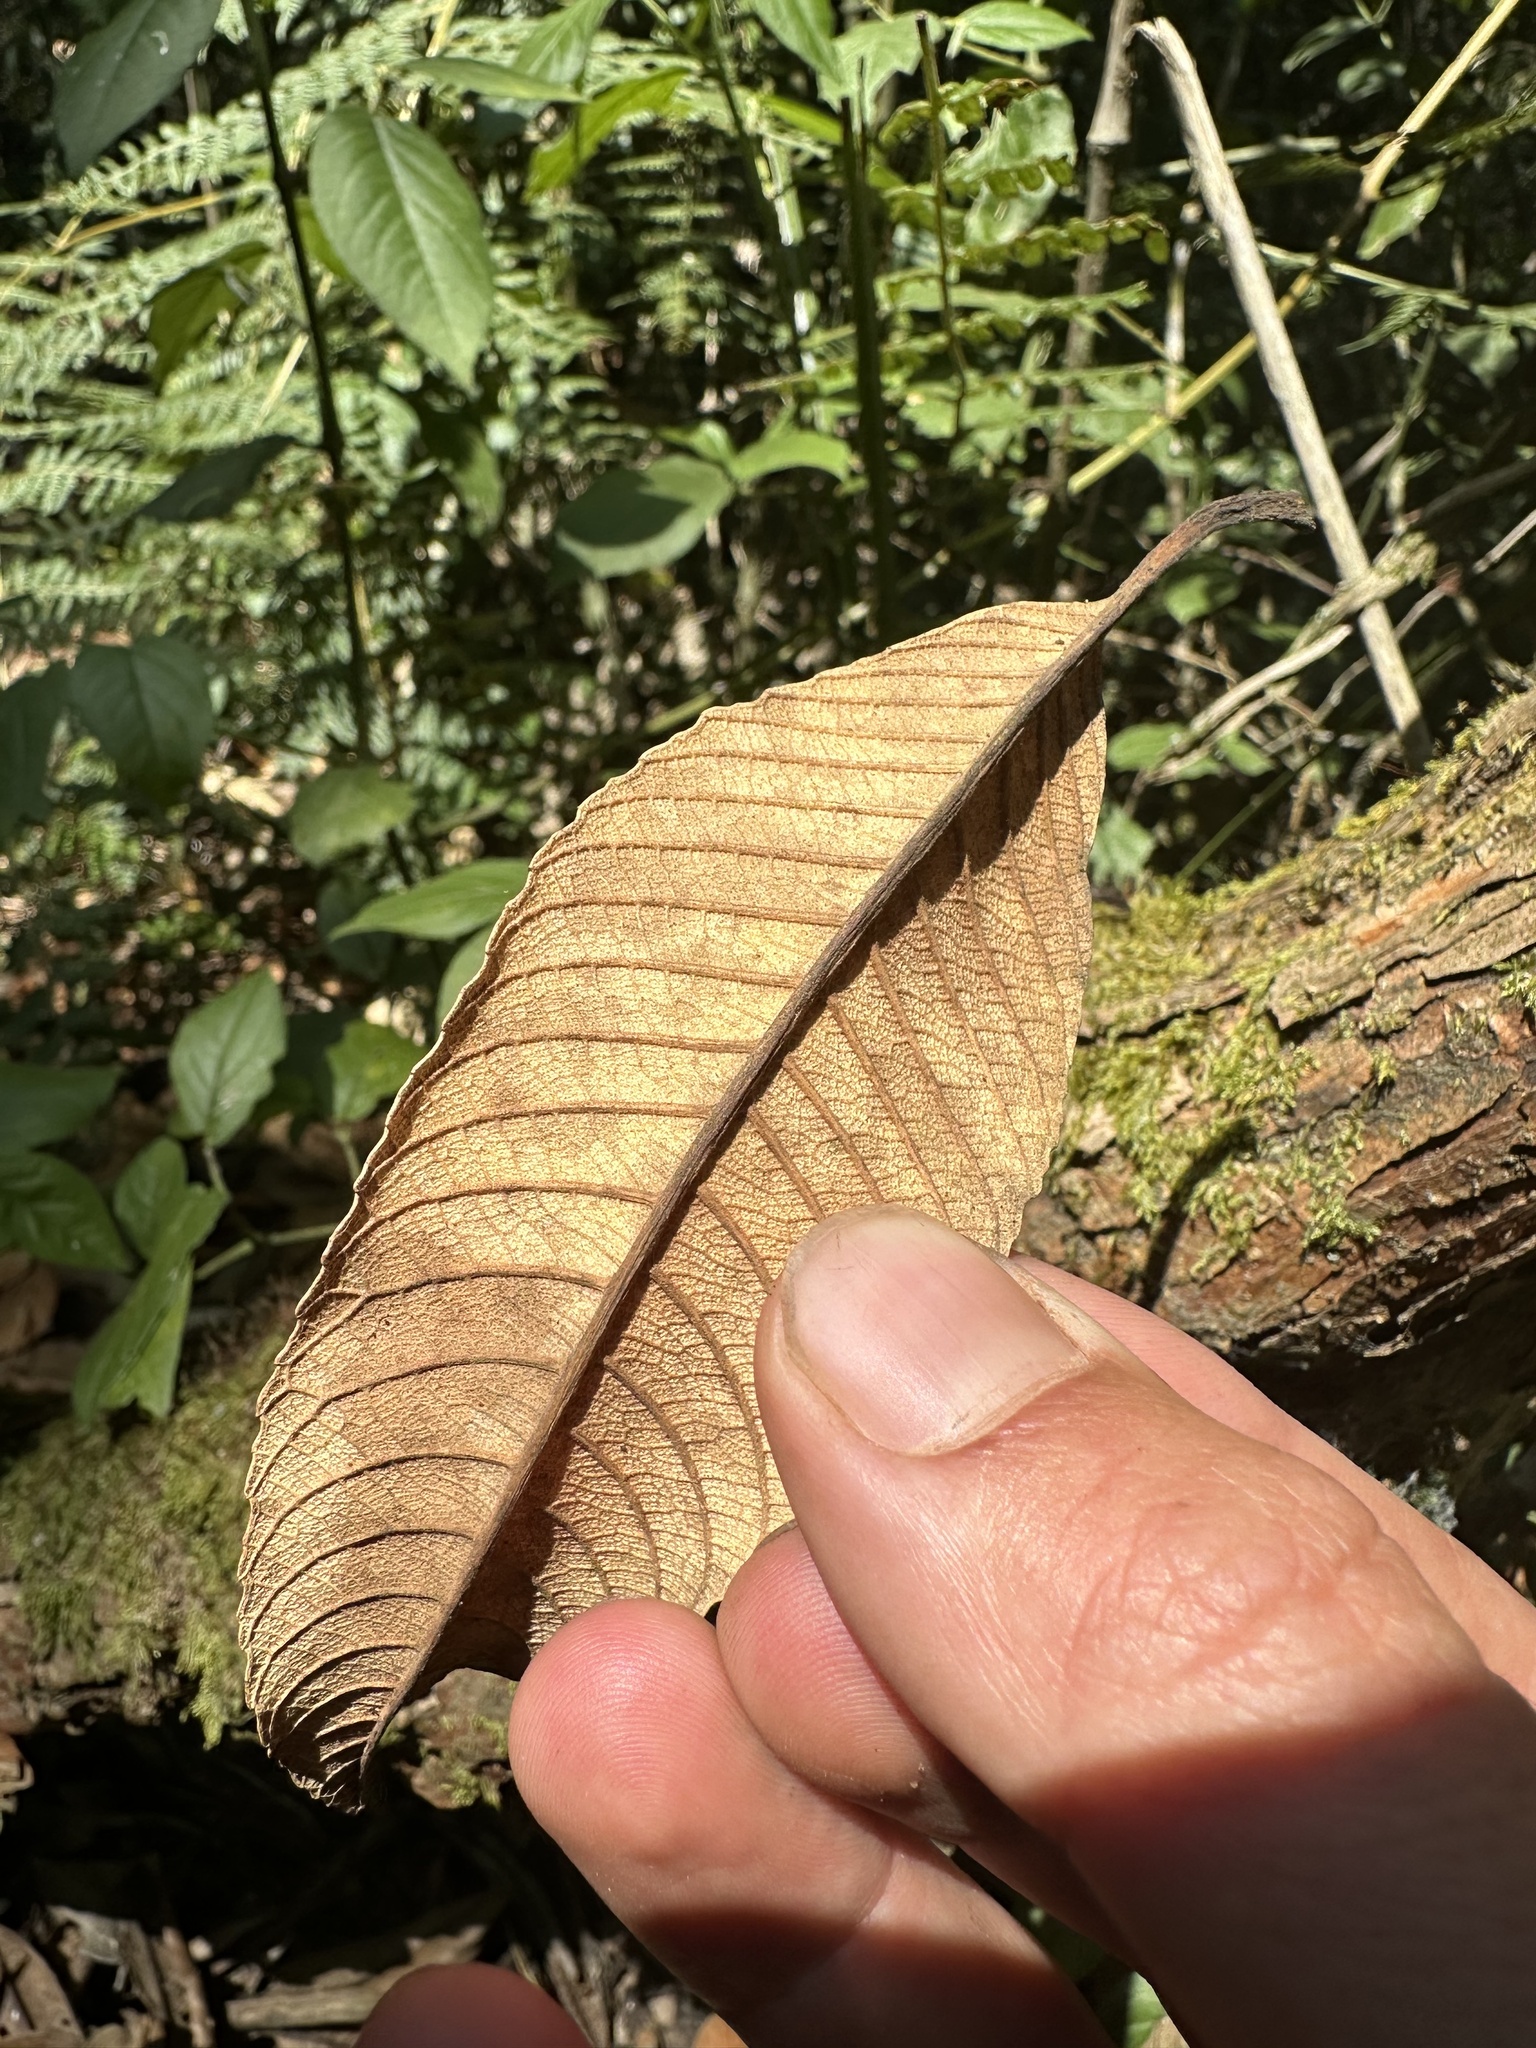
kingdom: Plantae
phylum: Tracheophyta
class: Magnoliopsida
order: Oxalidales
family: Brunelliaceae
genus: Brunellia
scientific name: Brunellia acutangula
